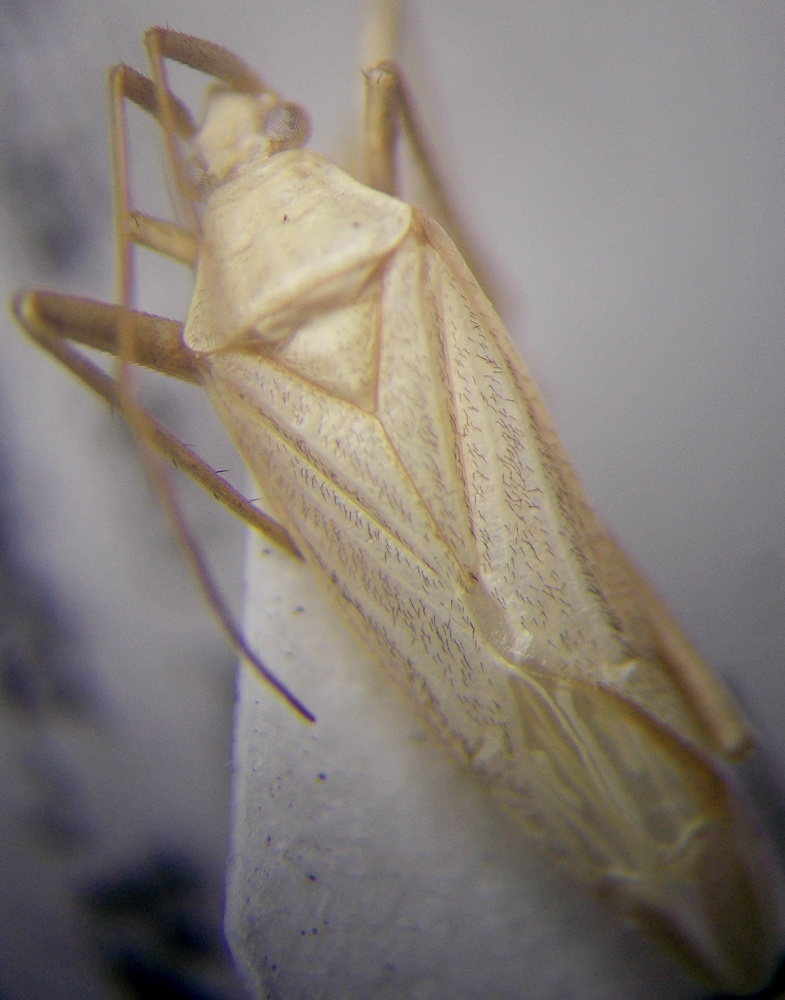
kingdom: Animalia
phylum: Arthropoda
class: Insecta
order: Hemiptera
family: Miridae
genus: Apantilius
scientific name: Apantilius prasinus
